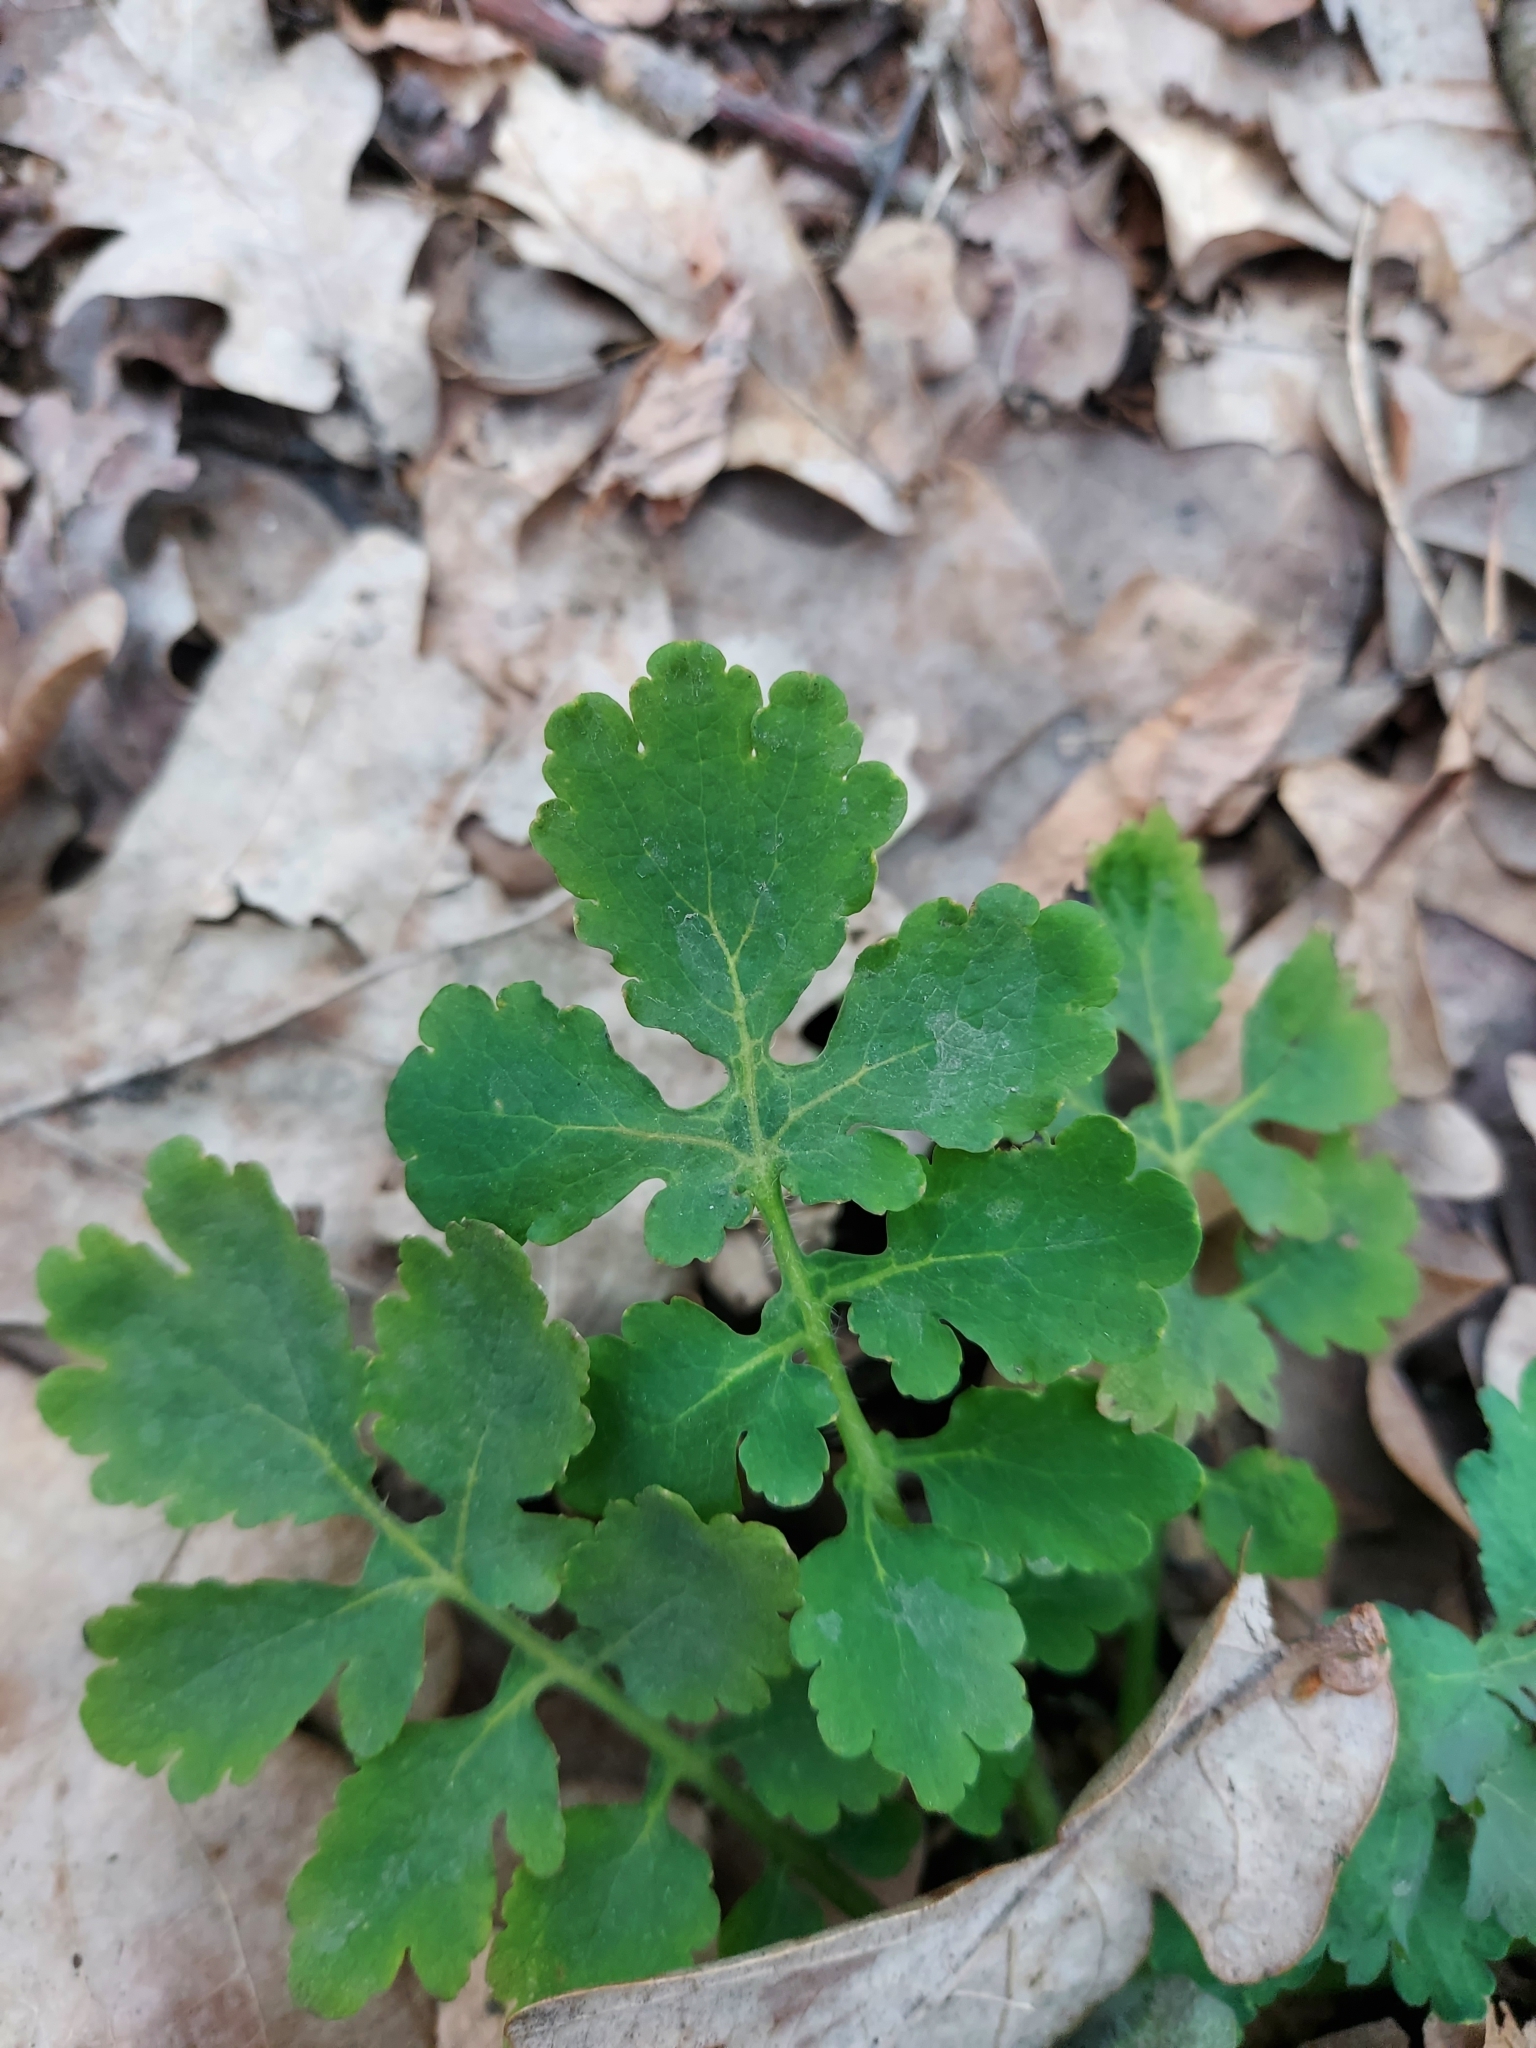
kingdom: Plantae
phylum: Tracheophyta
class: Magnoliopsida
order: Ranunculales
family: Papaveraceae
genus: Chelidonium
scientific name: Chelidonium majus
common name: Greater celandine
